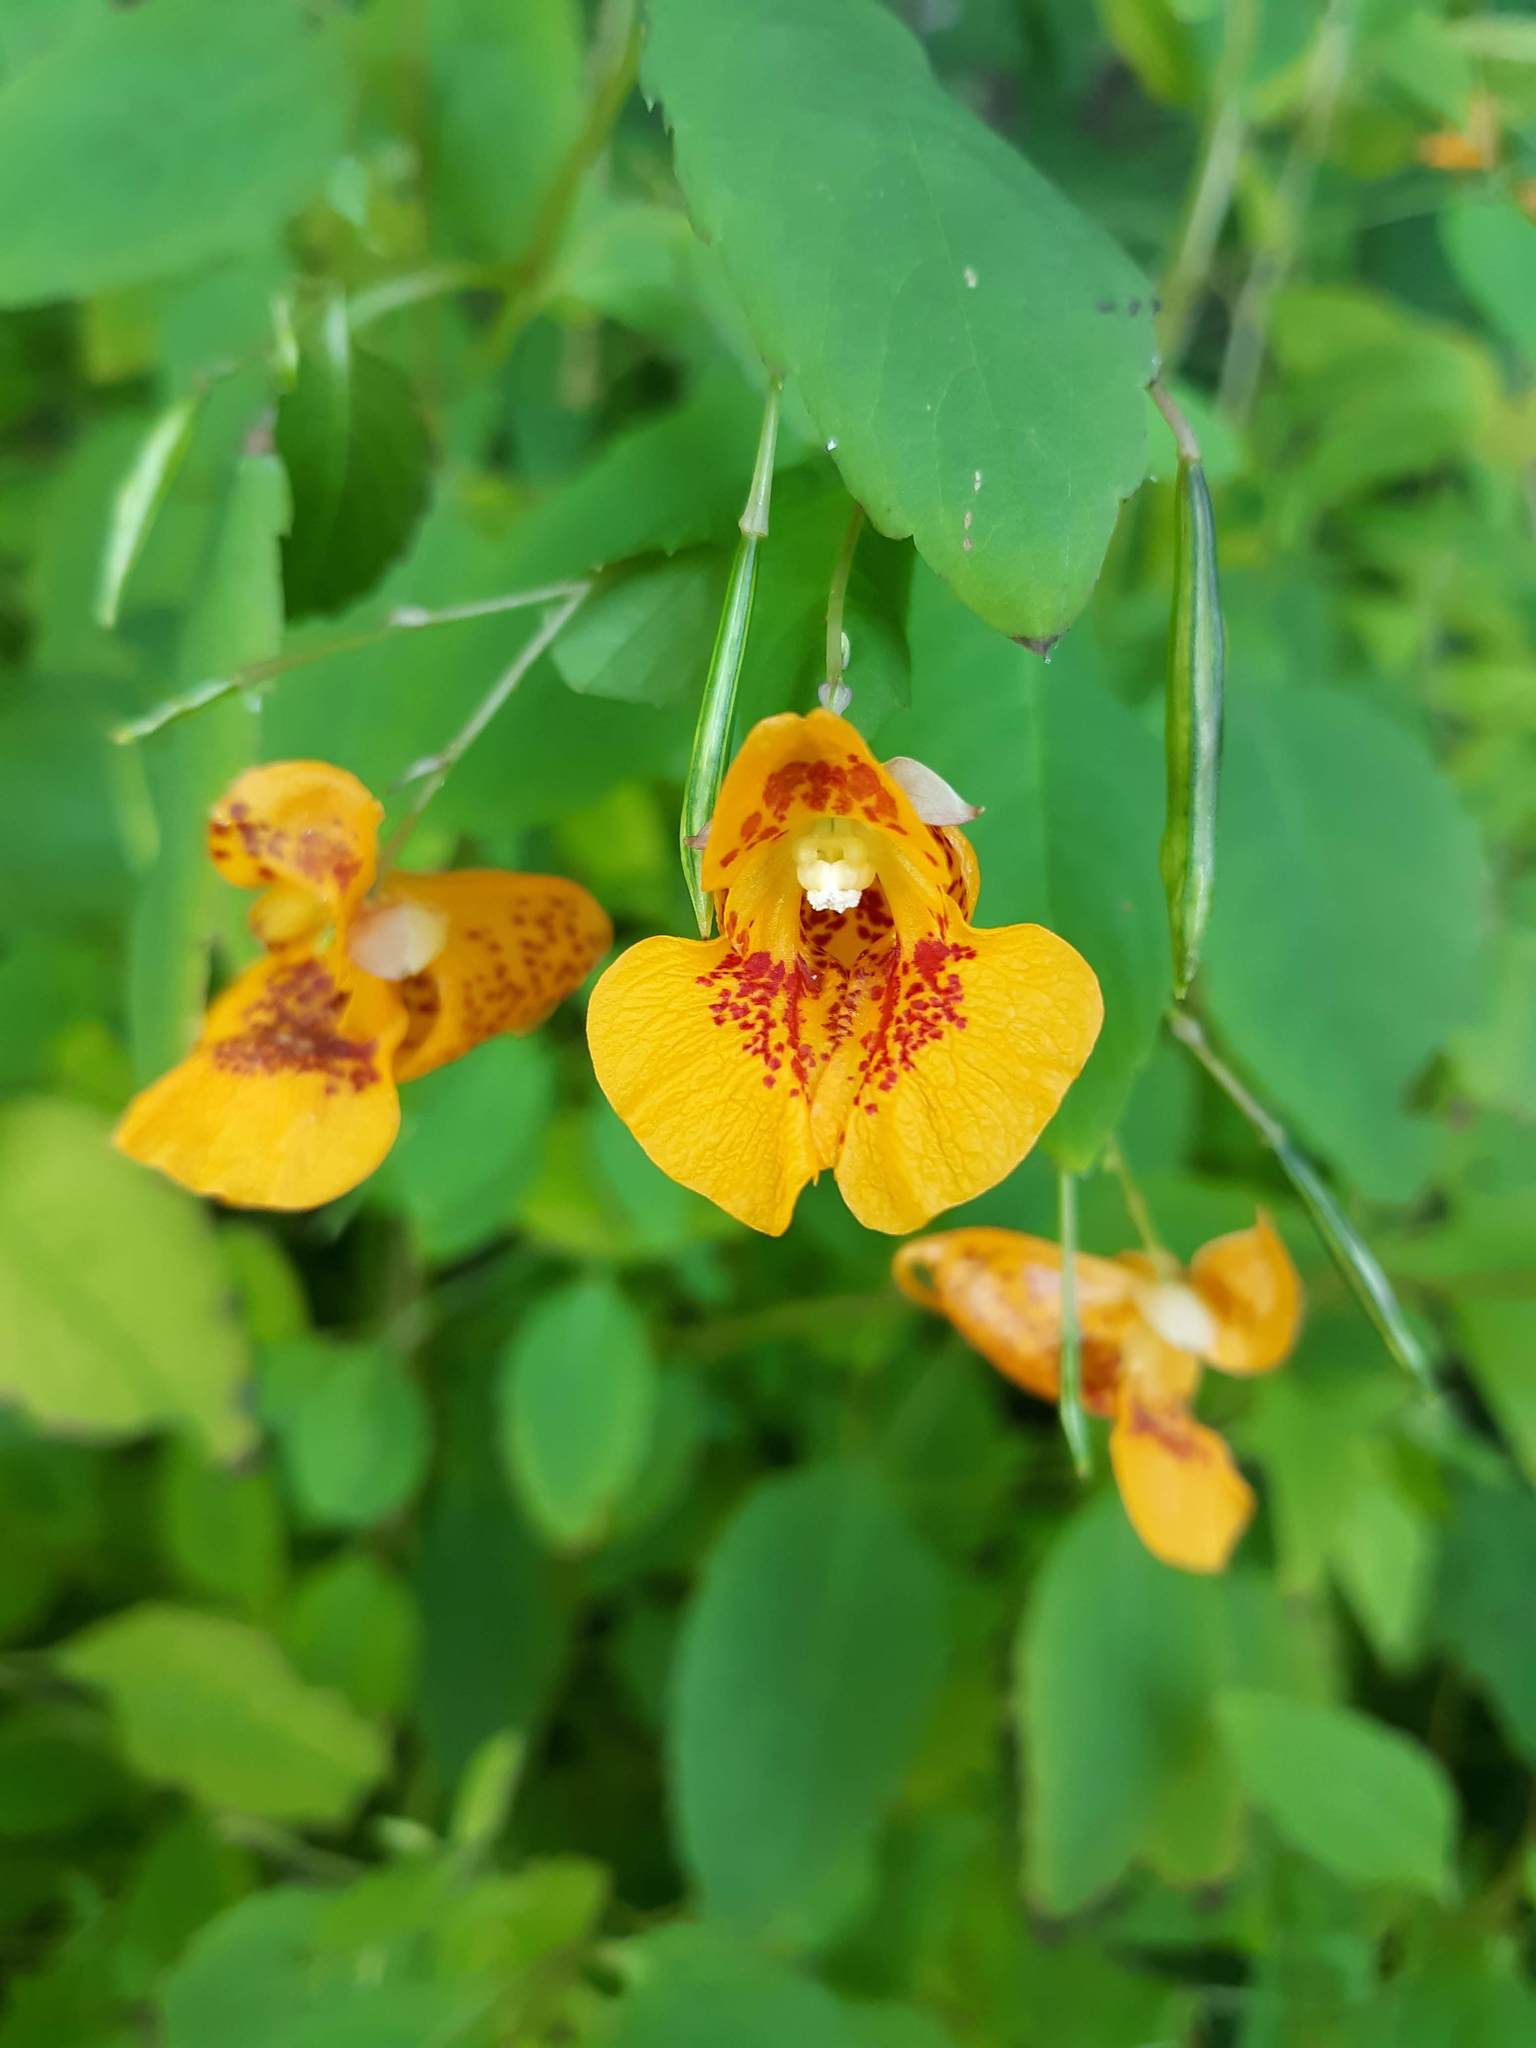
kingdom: Plantae
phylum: Tracheophyta
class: Magnoliopsida
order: Ericales
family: Balsaminaceae
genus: Impatiens
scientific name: Impatiens capensis
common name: Orange balsam
